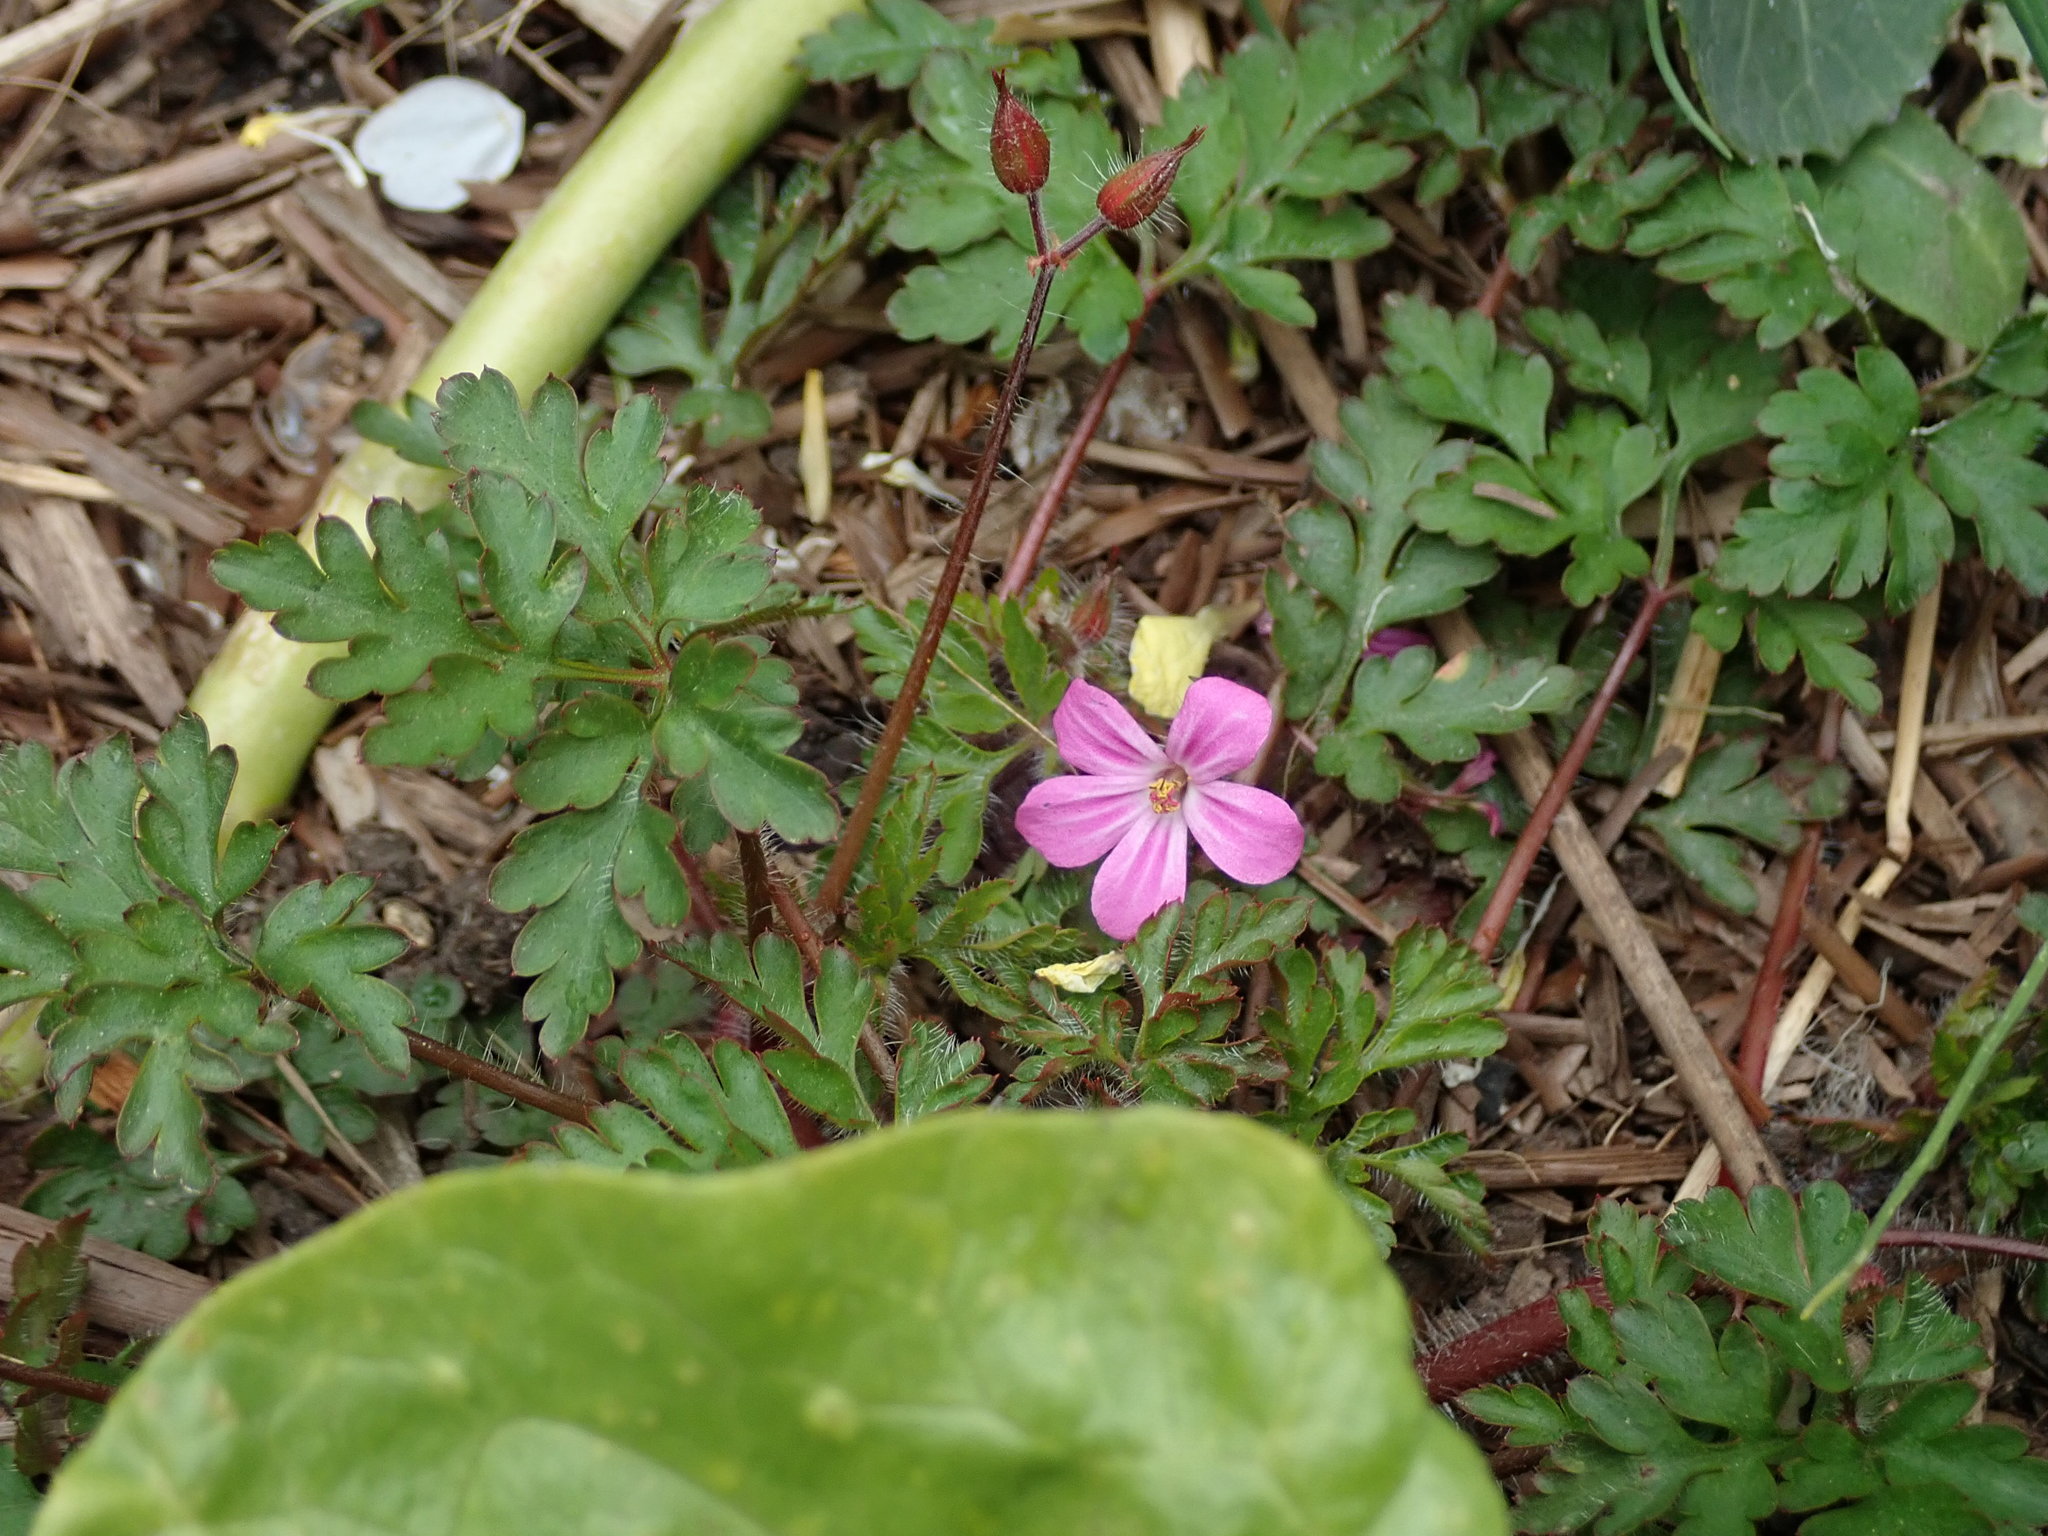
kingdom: Plantae
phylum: Tracheophyta
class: Magnoliopsida
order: Geraniales
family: Geraniaceae
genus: Geranium
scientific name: Geranium robertianum
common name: Herb-robert
